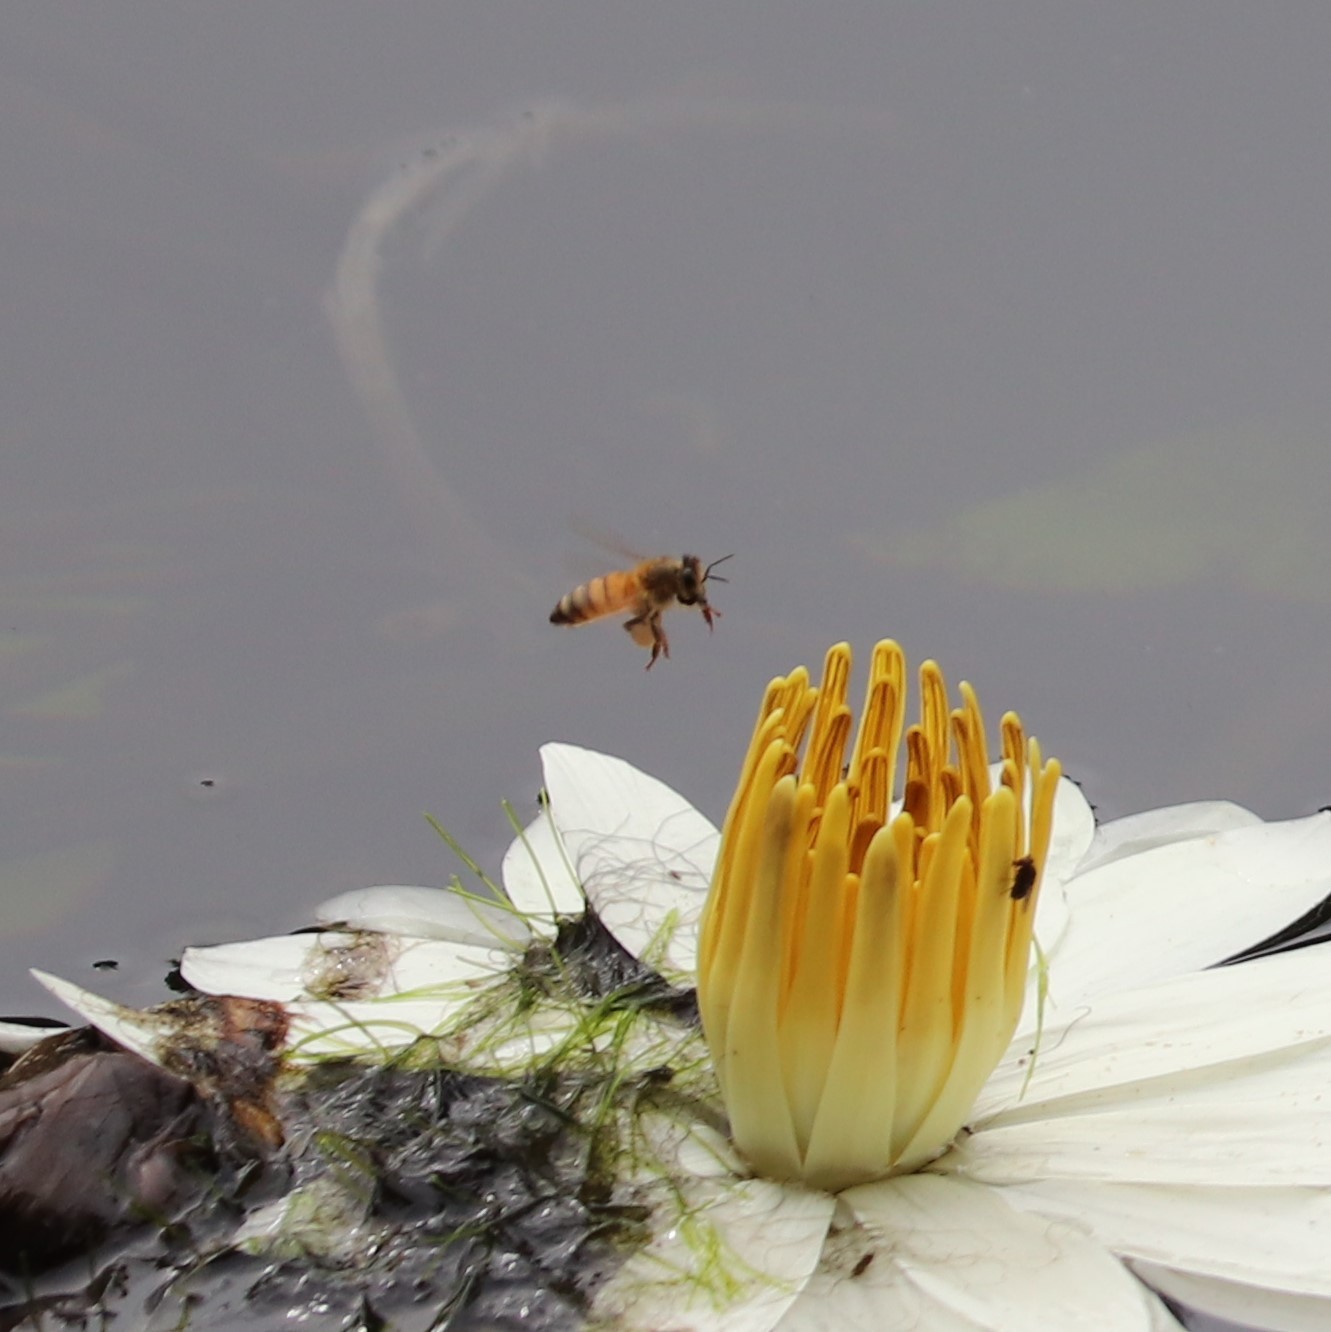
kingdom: Animalia
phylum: Arthropoda
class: Insecta
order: Hymenoptera
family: Apidae
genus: Apis
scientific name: Apis mellifera
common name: Honey bee
